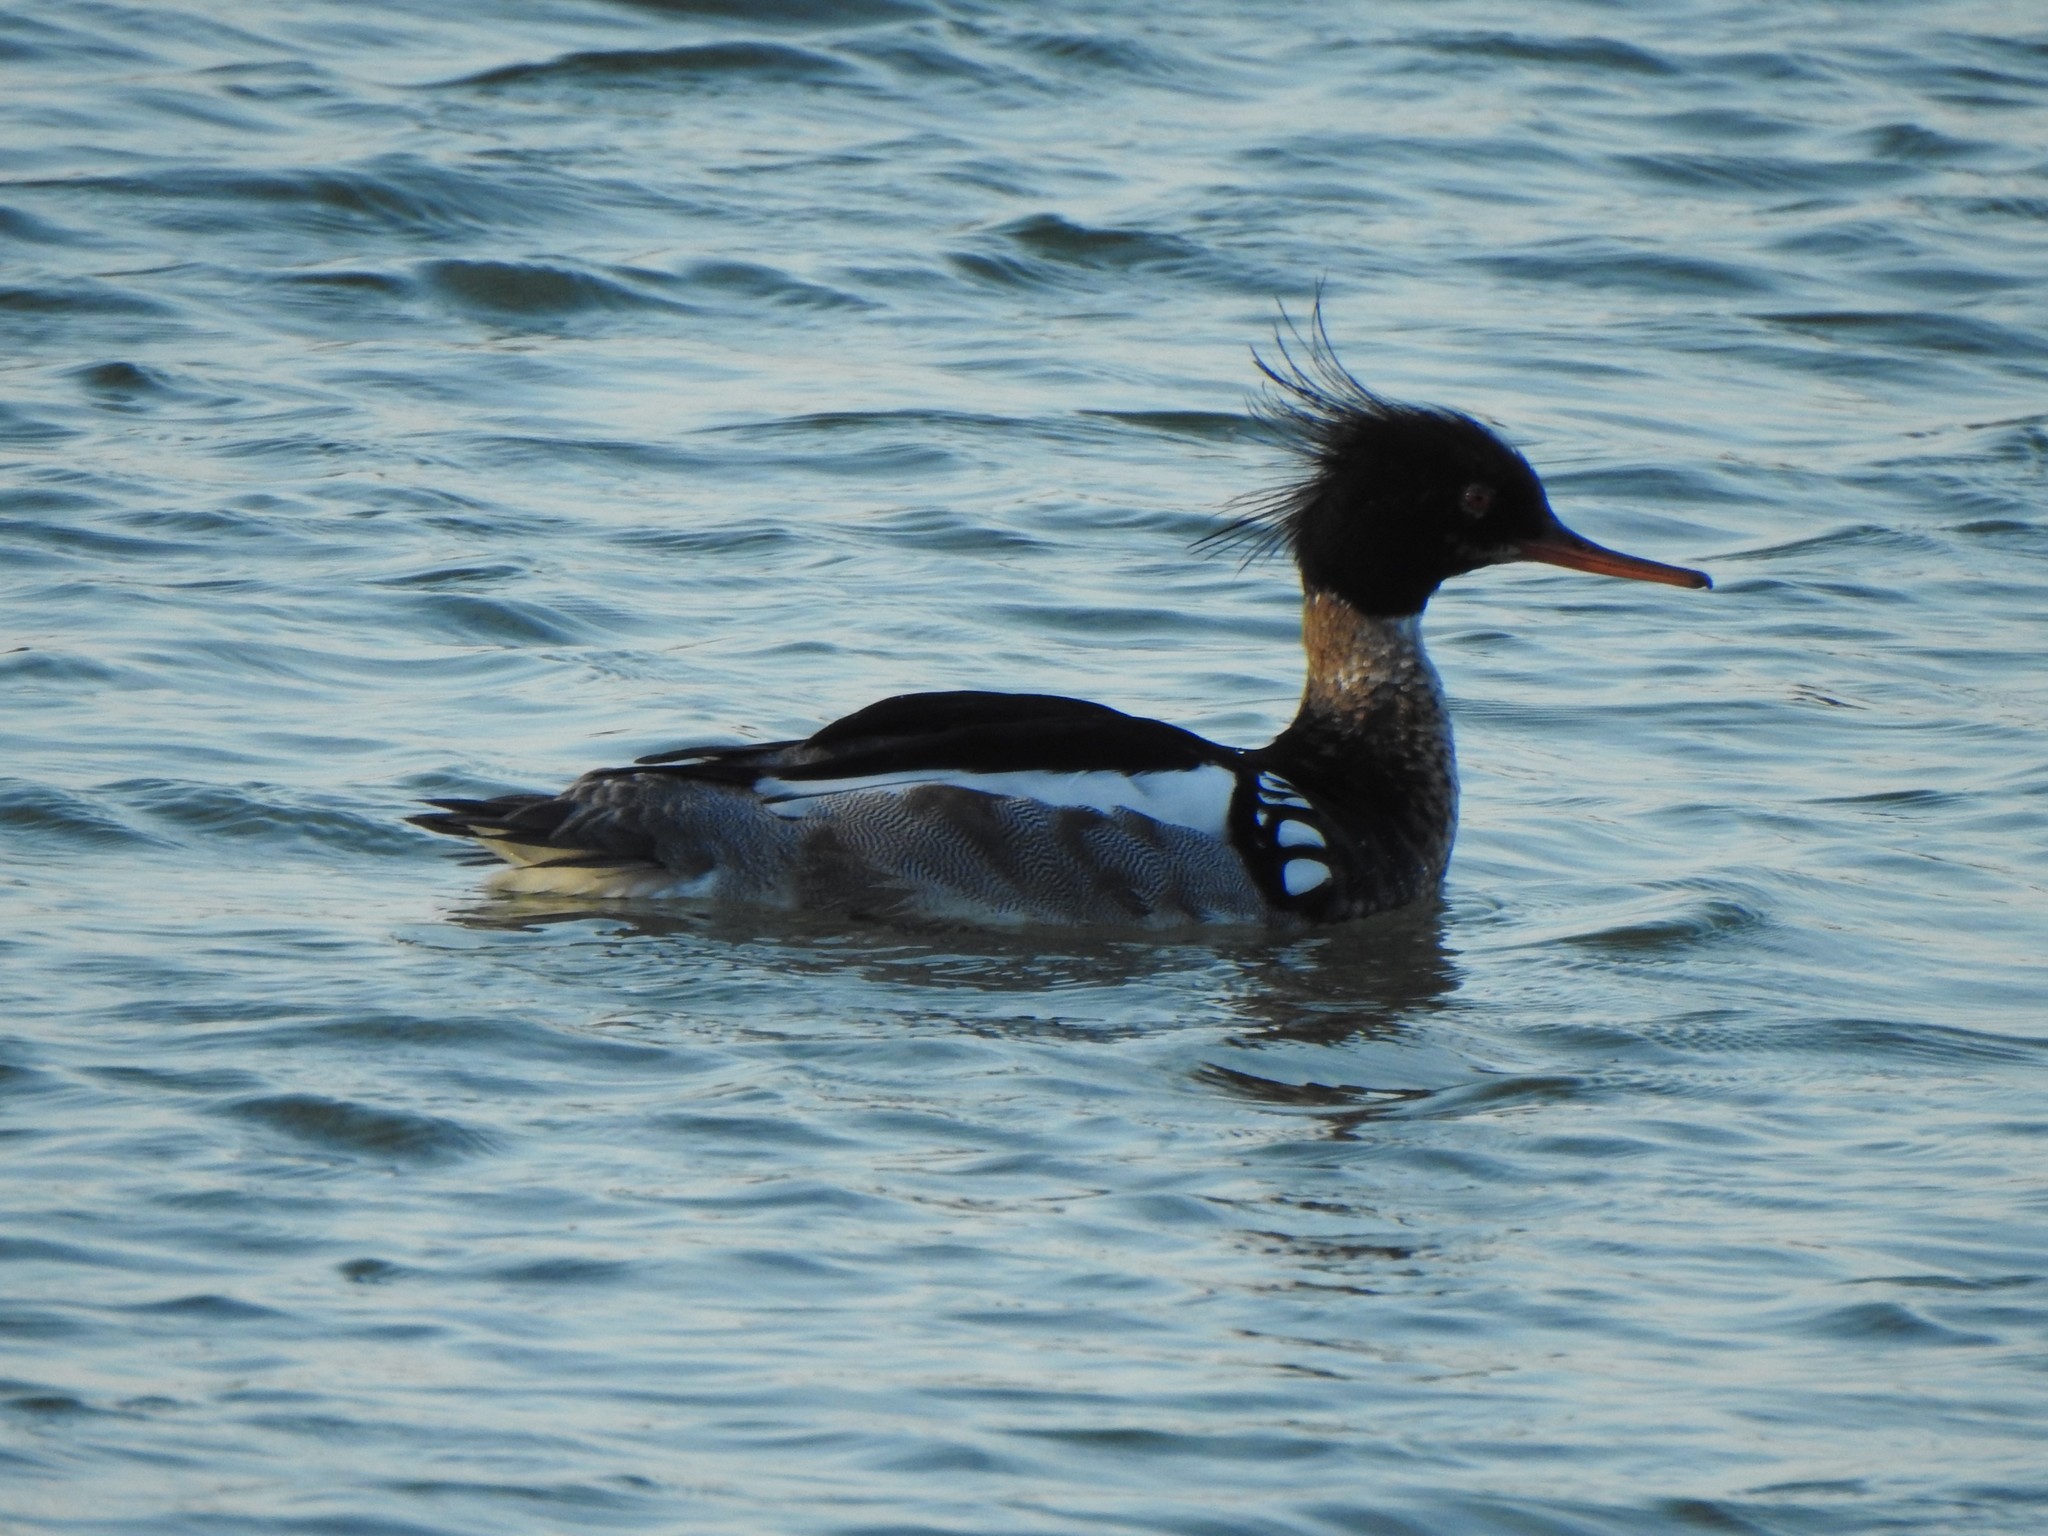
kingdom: Animalia
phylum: Chordata
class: Aves
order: Anseriformes
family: Anatidae
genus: Mergus
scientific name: Mergus serrator
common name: Red-breasted merganser
